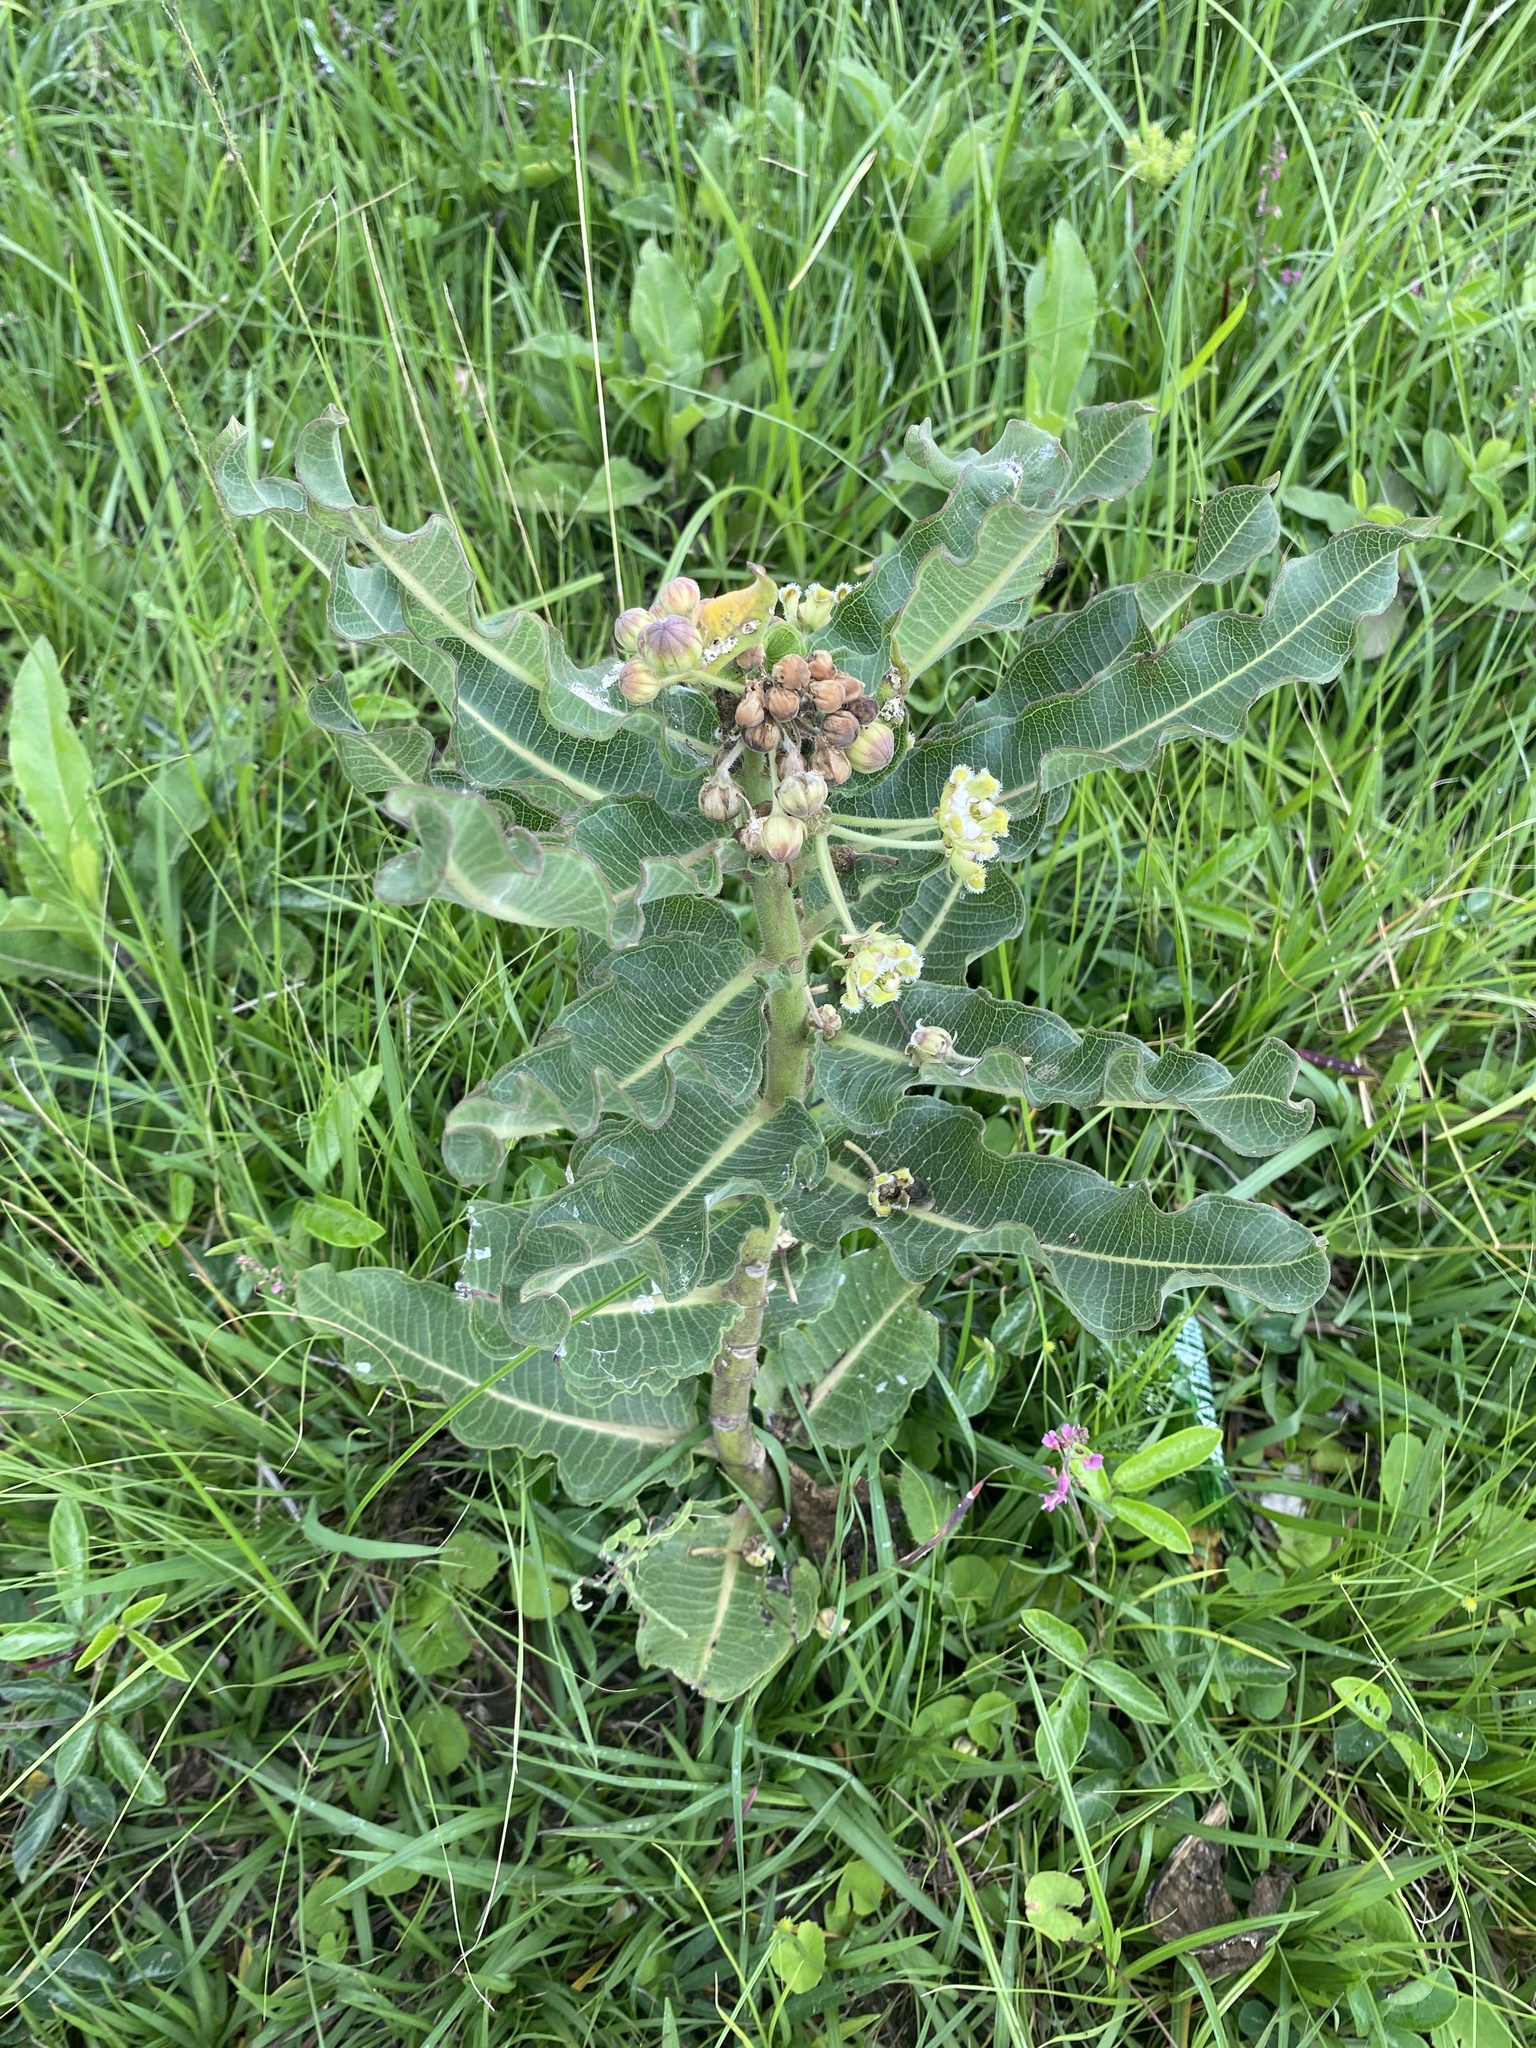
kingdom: Plantae
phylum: Tracheophyta
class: Magnoliopsida
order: Gentianales
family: Apocynaceae
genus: Xysmalobium
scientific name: Xysmalobium undulatum
